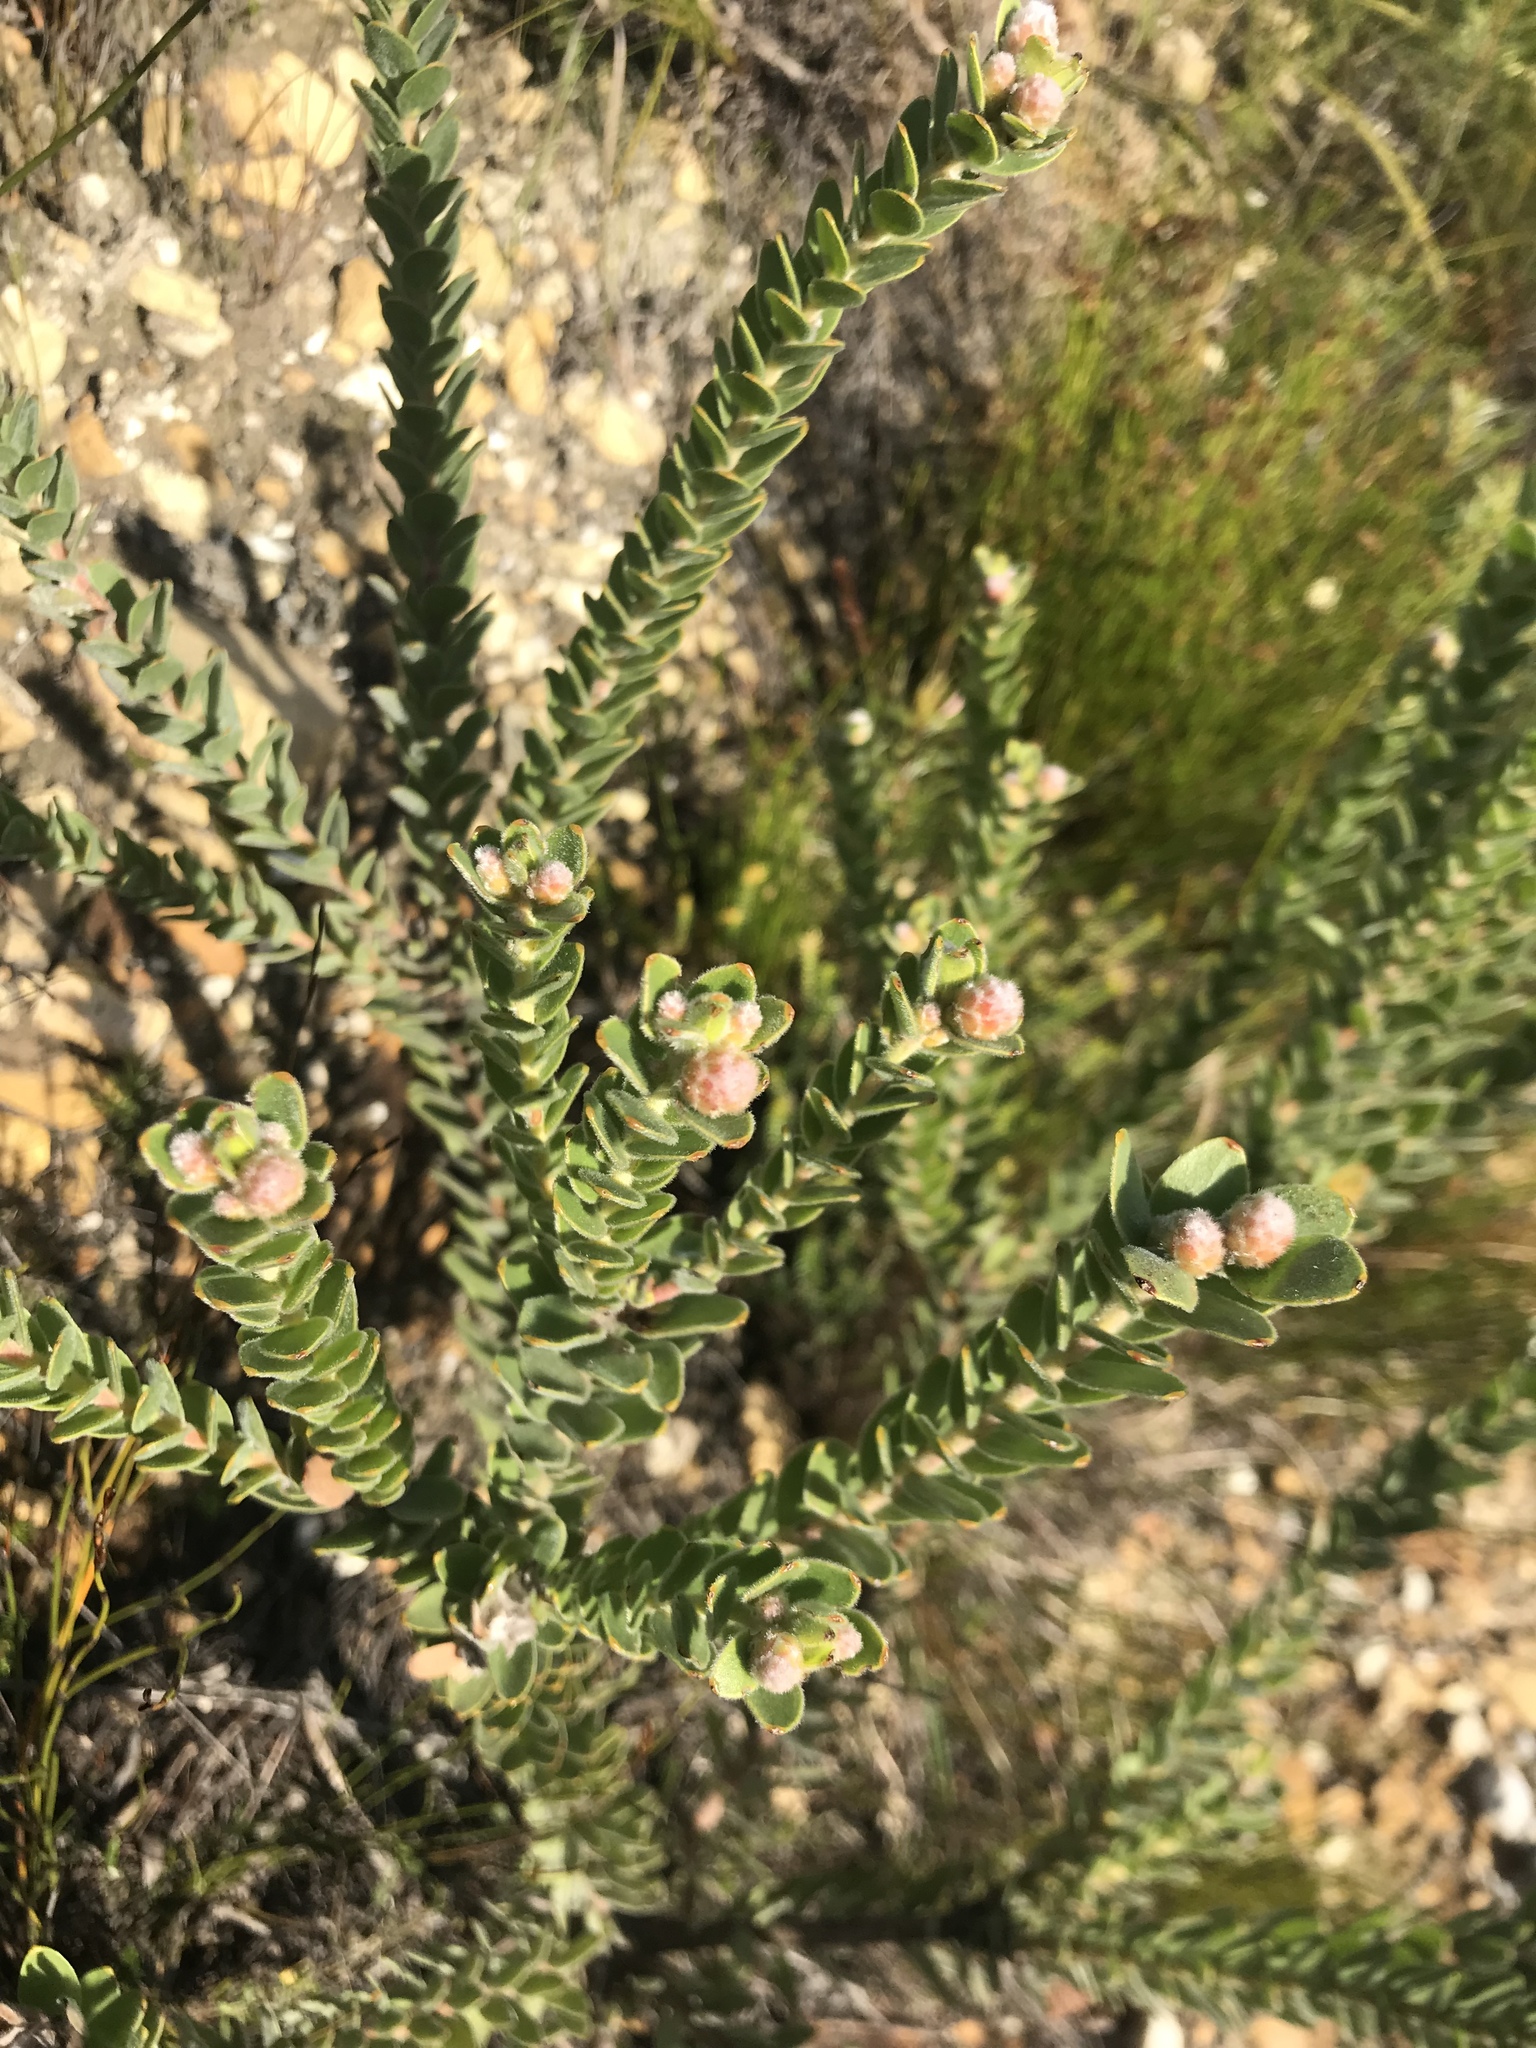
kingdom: Plantae
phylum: Tracheophyta
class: Magnoliopsida
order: Proteales
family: Proteaceae
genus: Leucospermum
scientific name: Leucospermum truncatulum
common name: Oval-leaf pincushion
